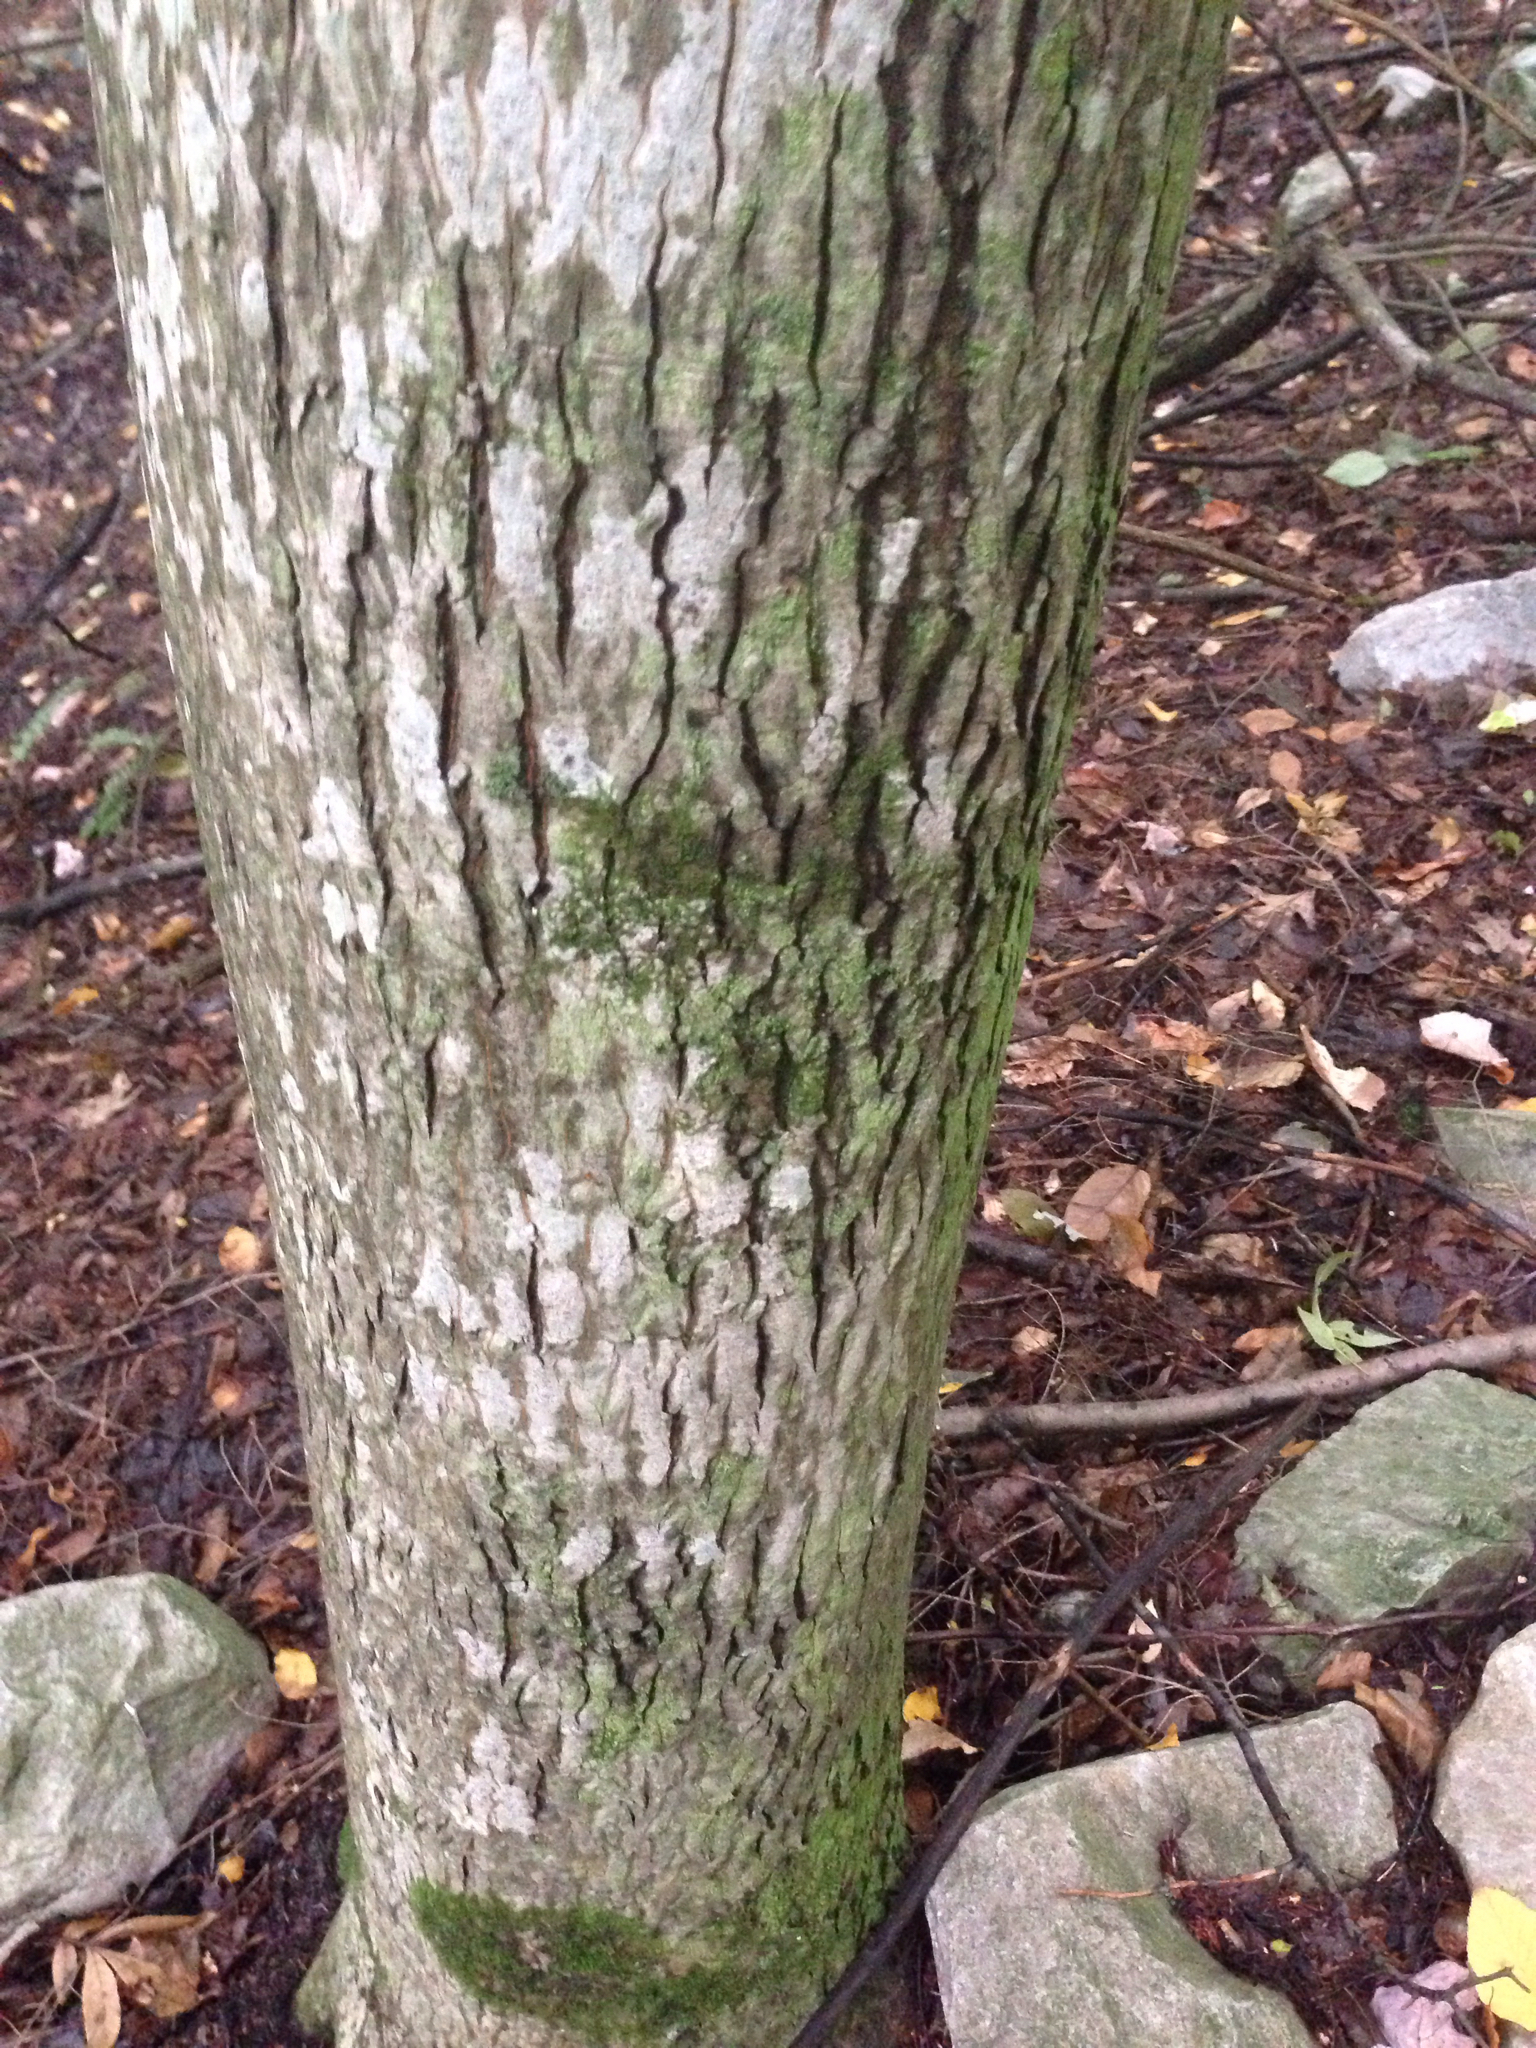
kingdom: Plantae
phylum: Tracheophyta
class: Magnoliopsida
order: Fagales
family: Juglandaceae
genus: Carya
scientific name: Carya cordiformis
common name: Bitternut hickory
